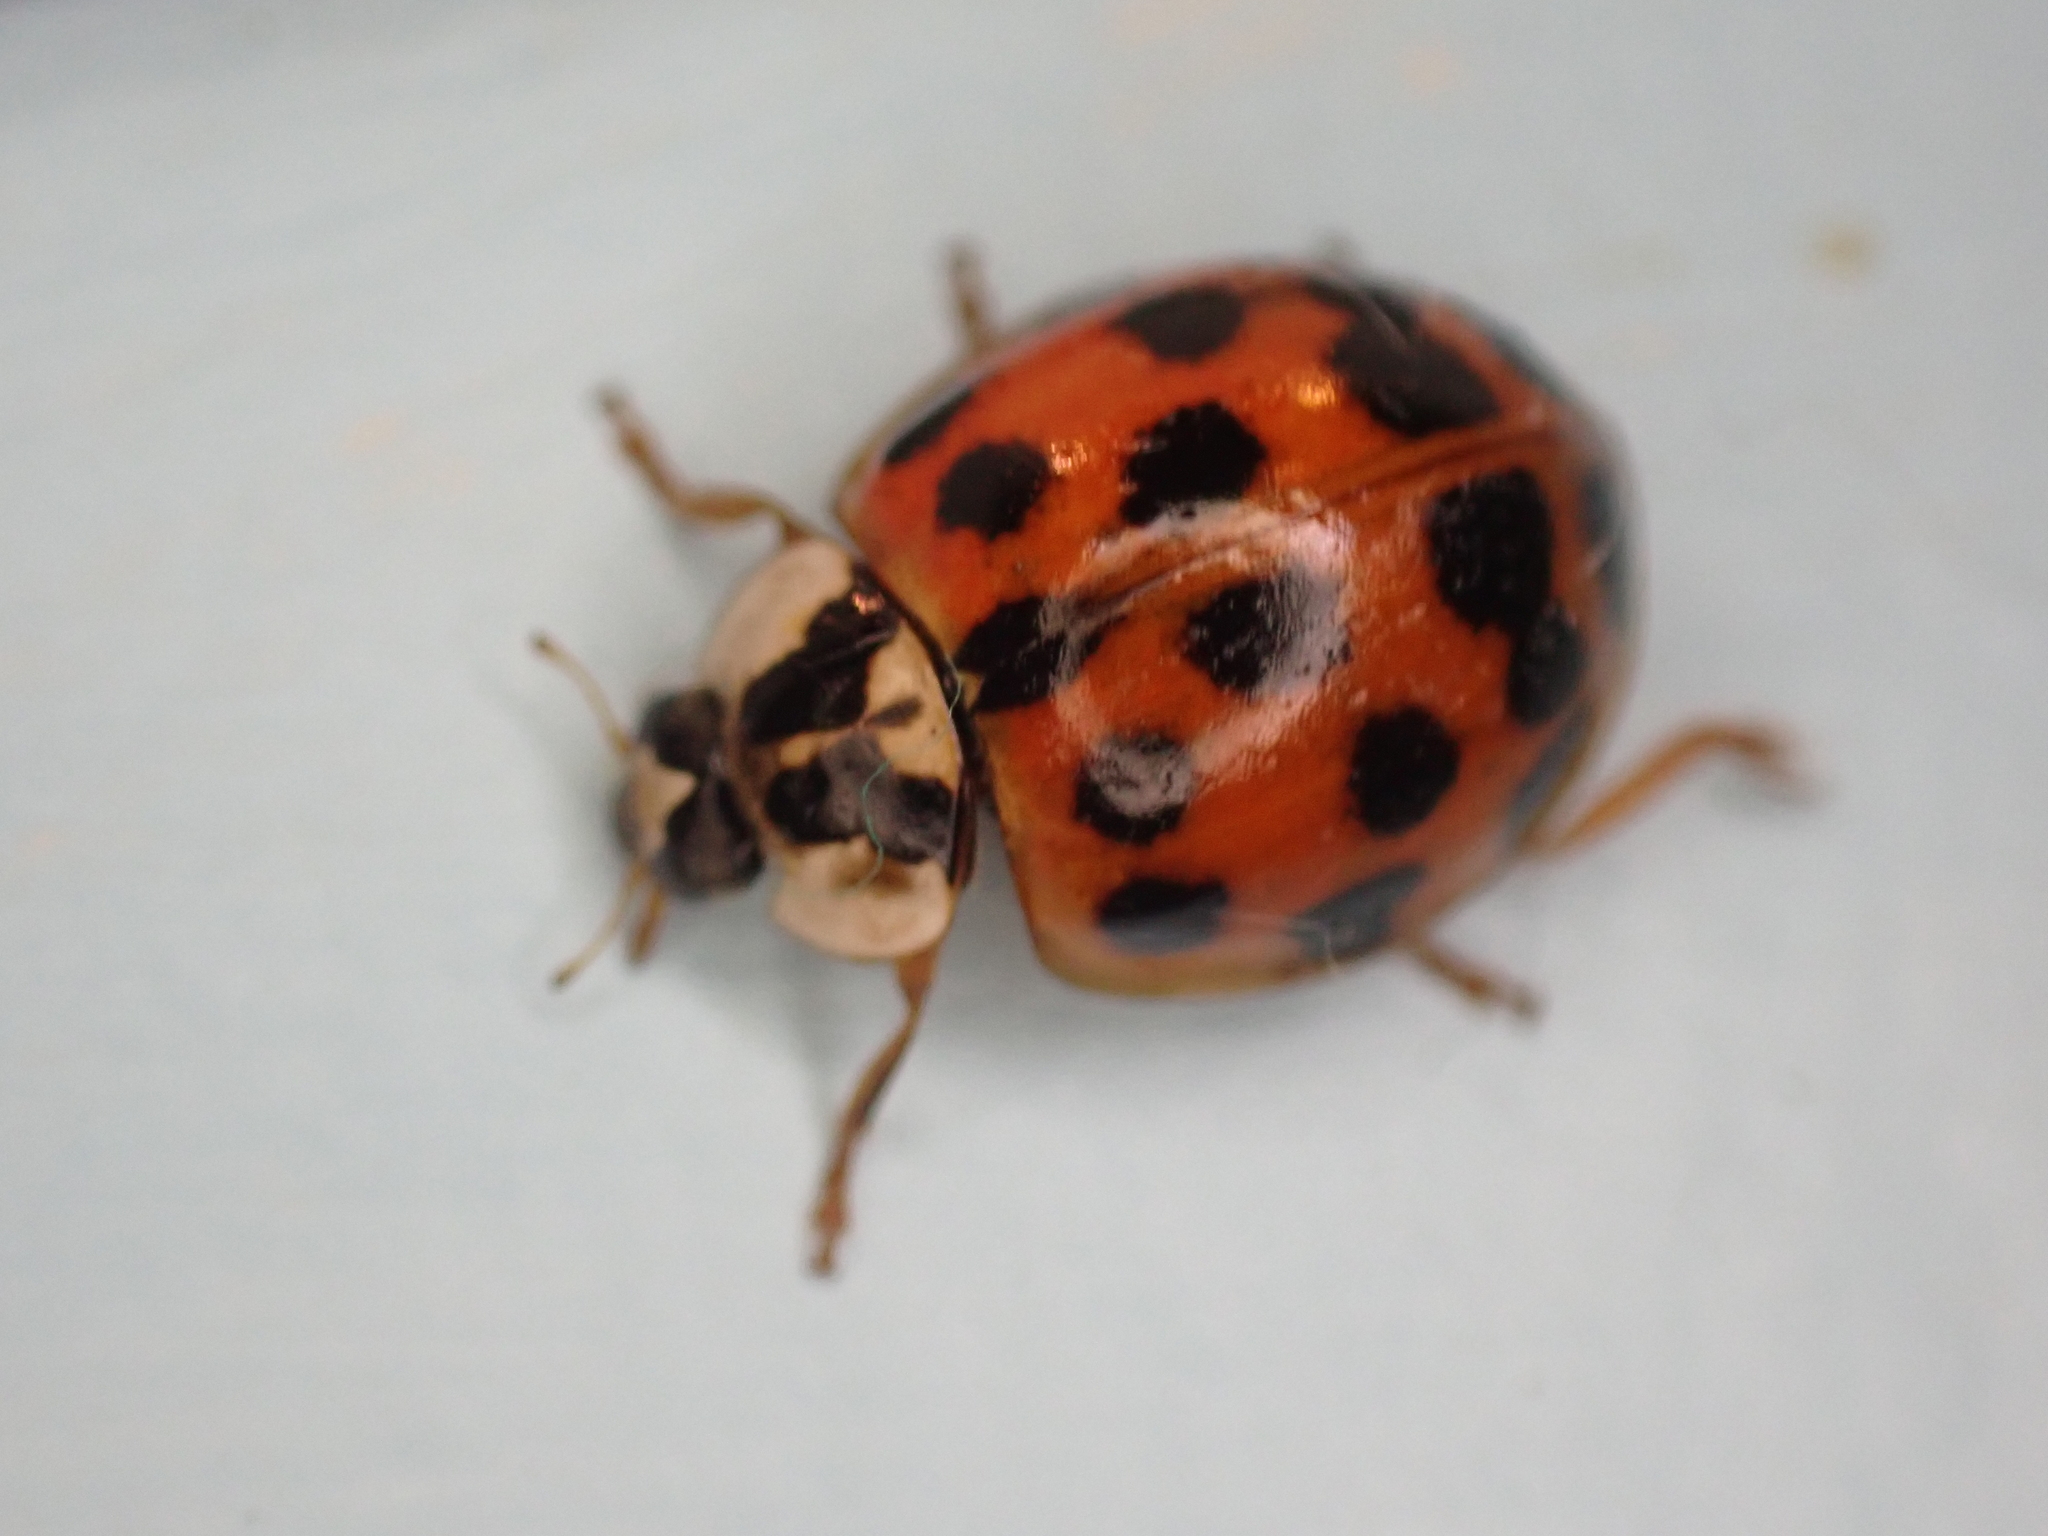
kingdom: Animalia
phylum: Arthropoda
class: Insecta
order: Coleoptera
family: Coccinellidae
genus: Harmonia
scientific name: Harmonia axyridis
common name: Harlequin ladybird
